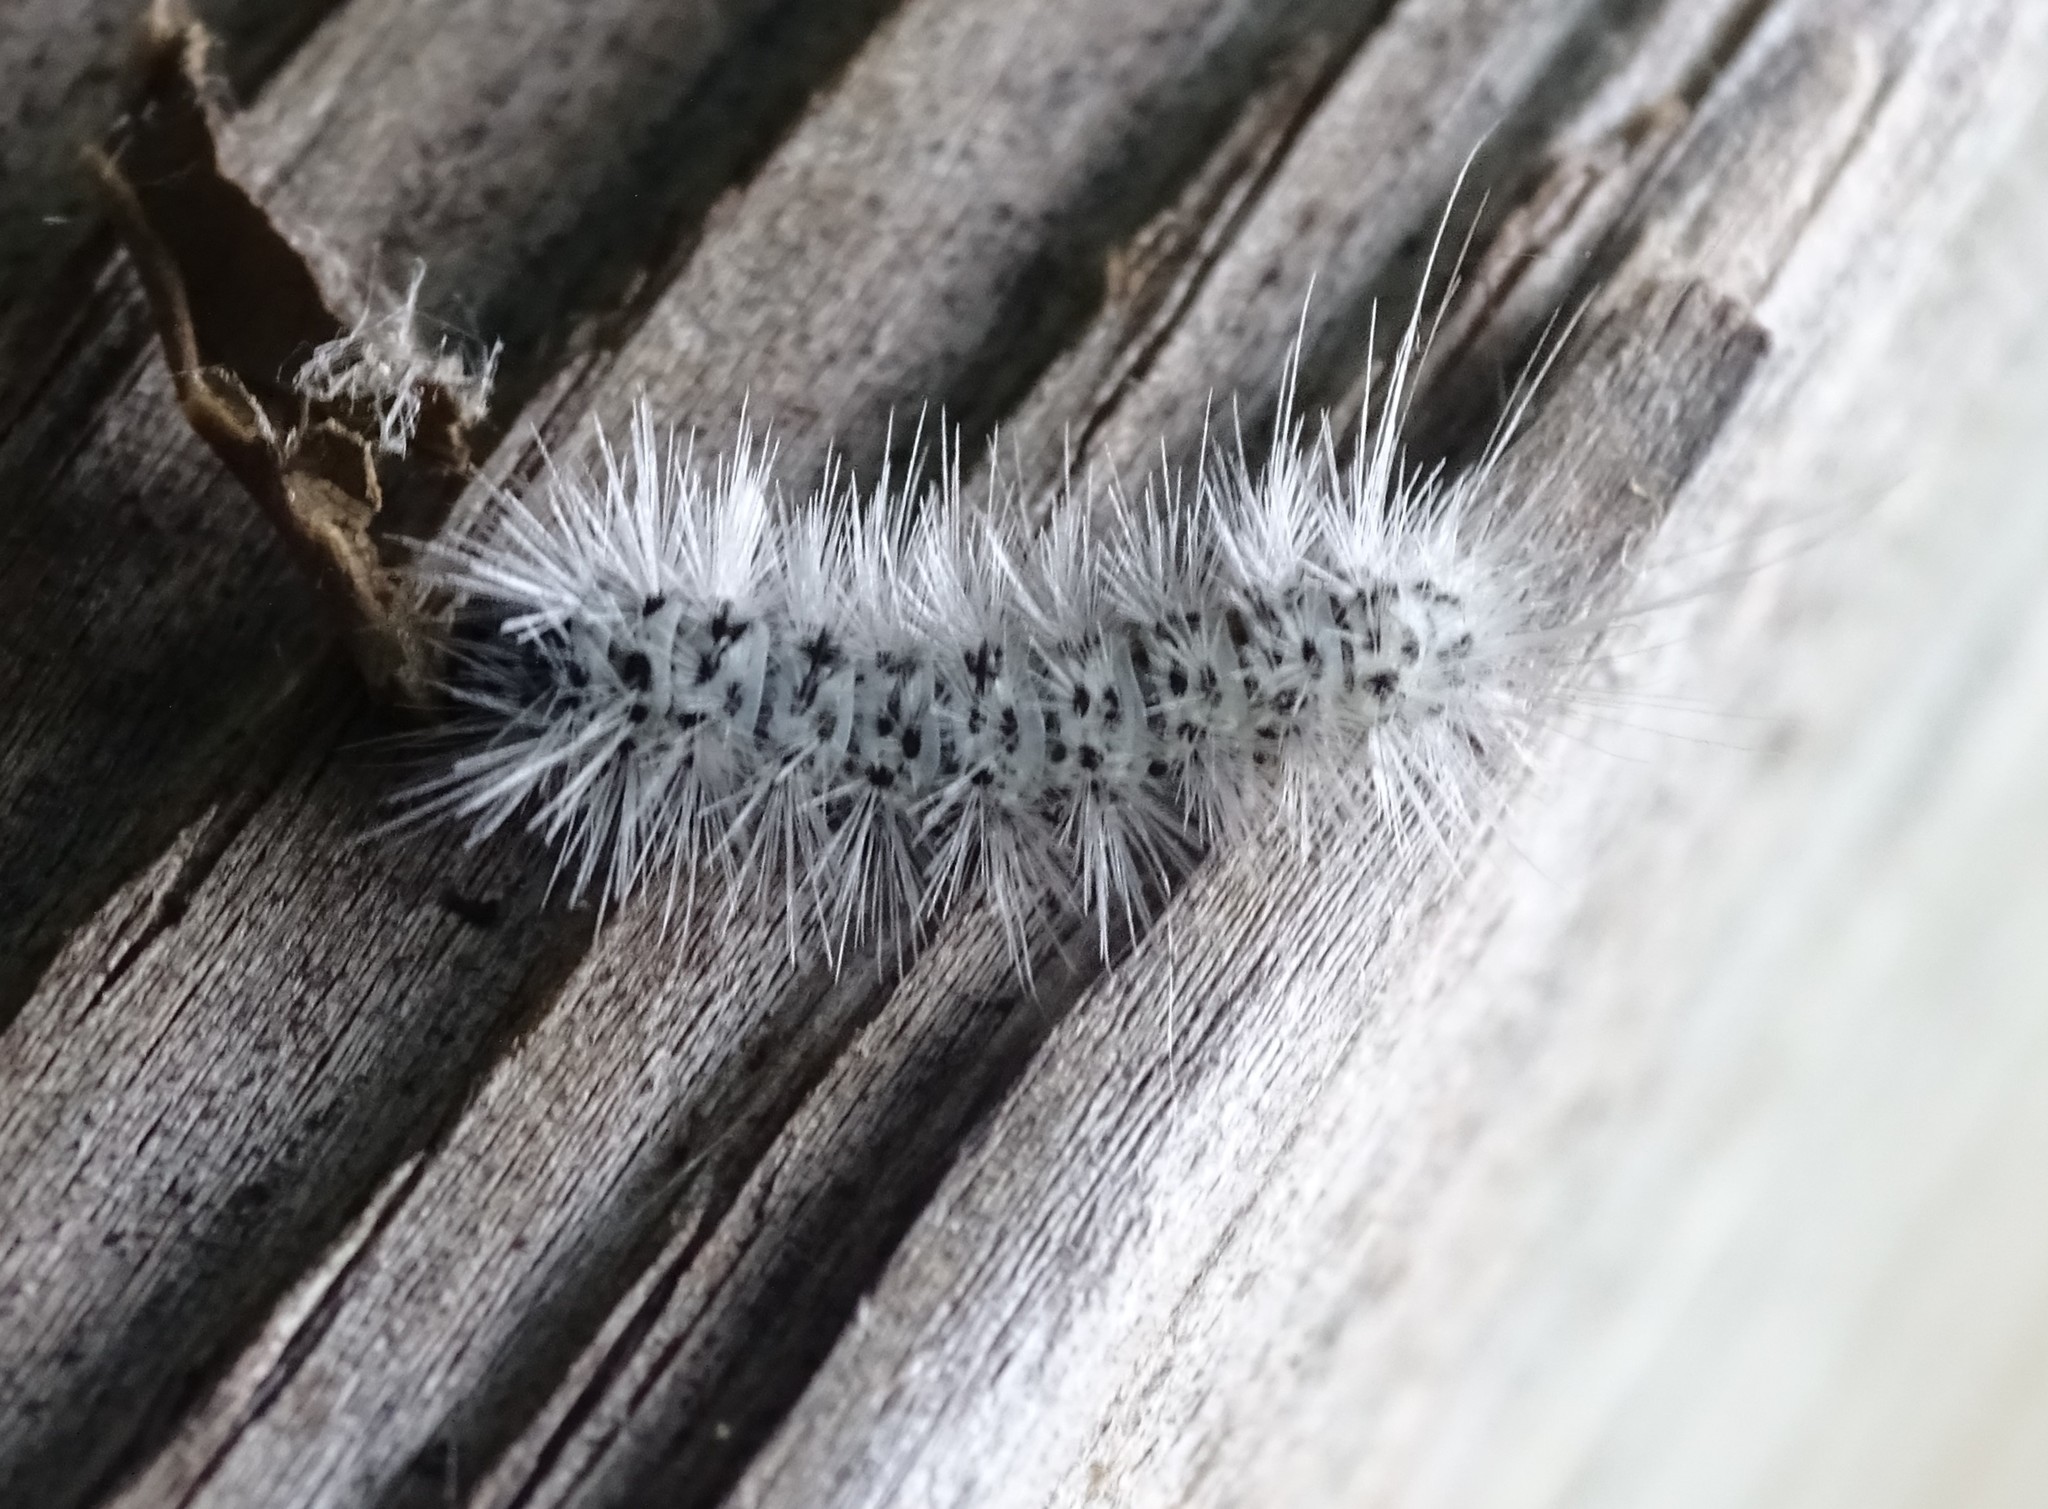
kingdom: Animalia
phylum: Arthropoda
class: Insecta
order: Lepidoptera
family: Erebidae
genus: Lophocampa
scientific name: Lophocampa caryae
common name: Hickory tussock moth
